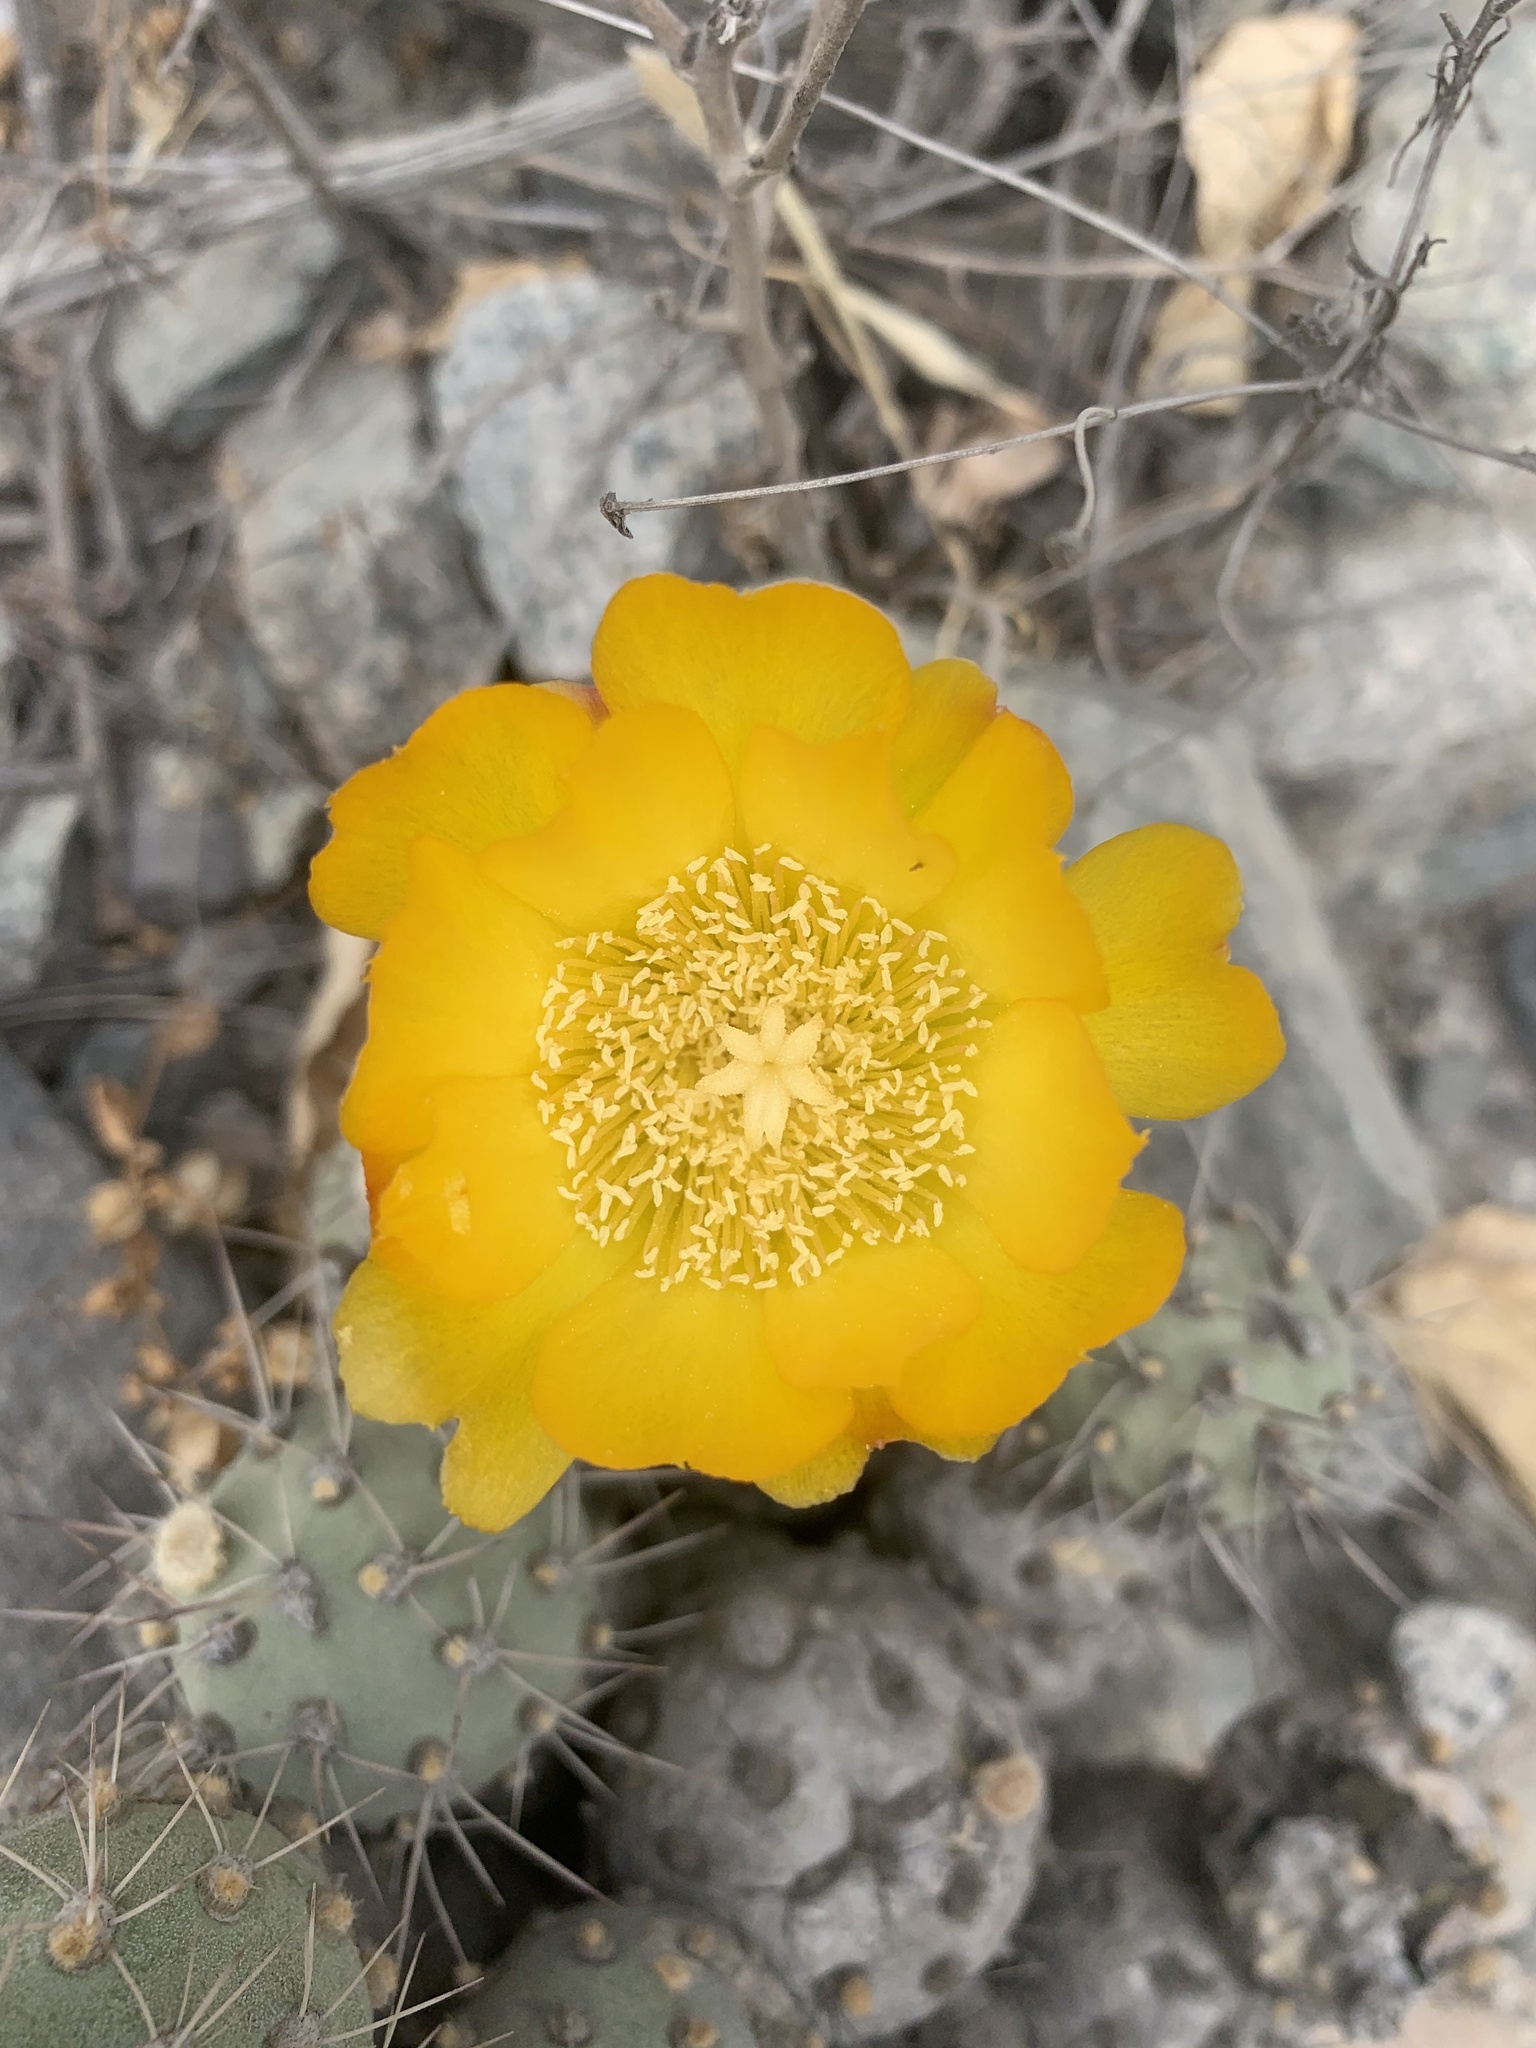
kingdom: Plantae
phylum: Tracheophyta
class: Magnoliopsida
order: Caryophyllales
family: Cactaceae
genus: Cumulopuntia
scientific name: Cumulopuntia sphaerica
